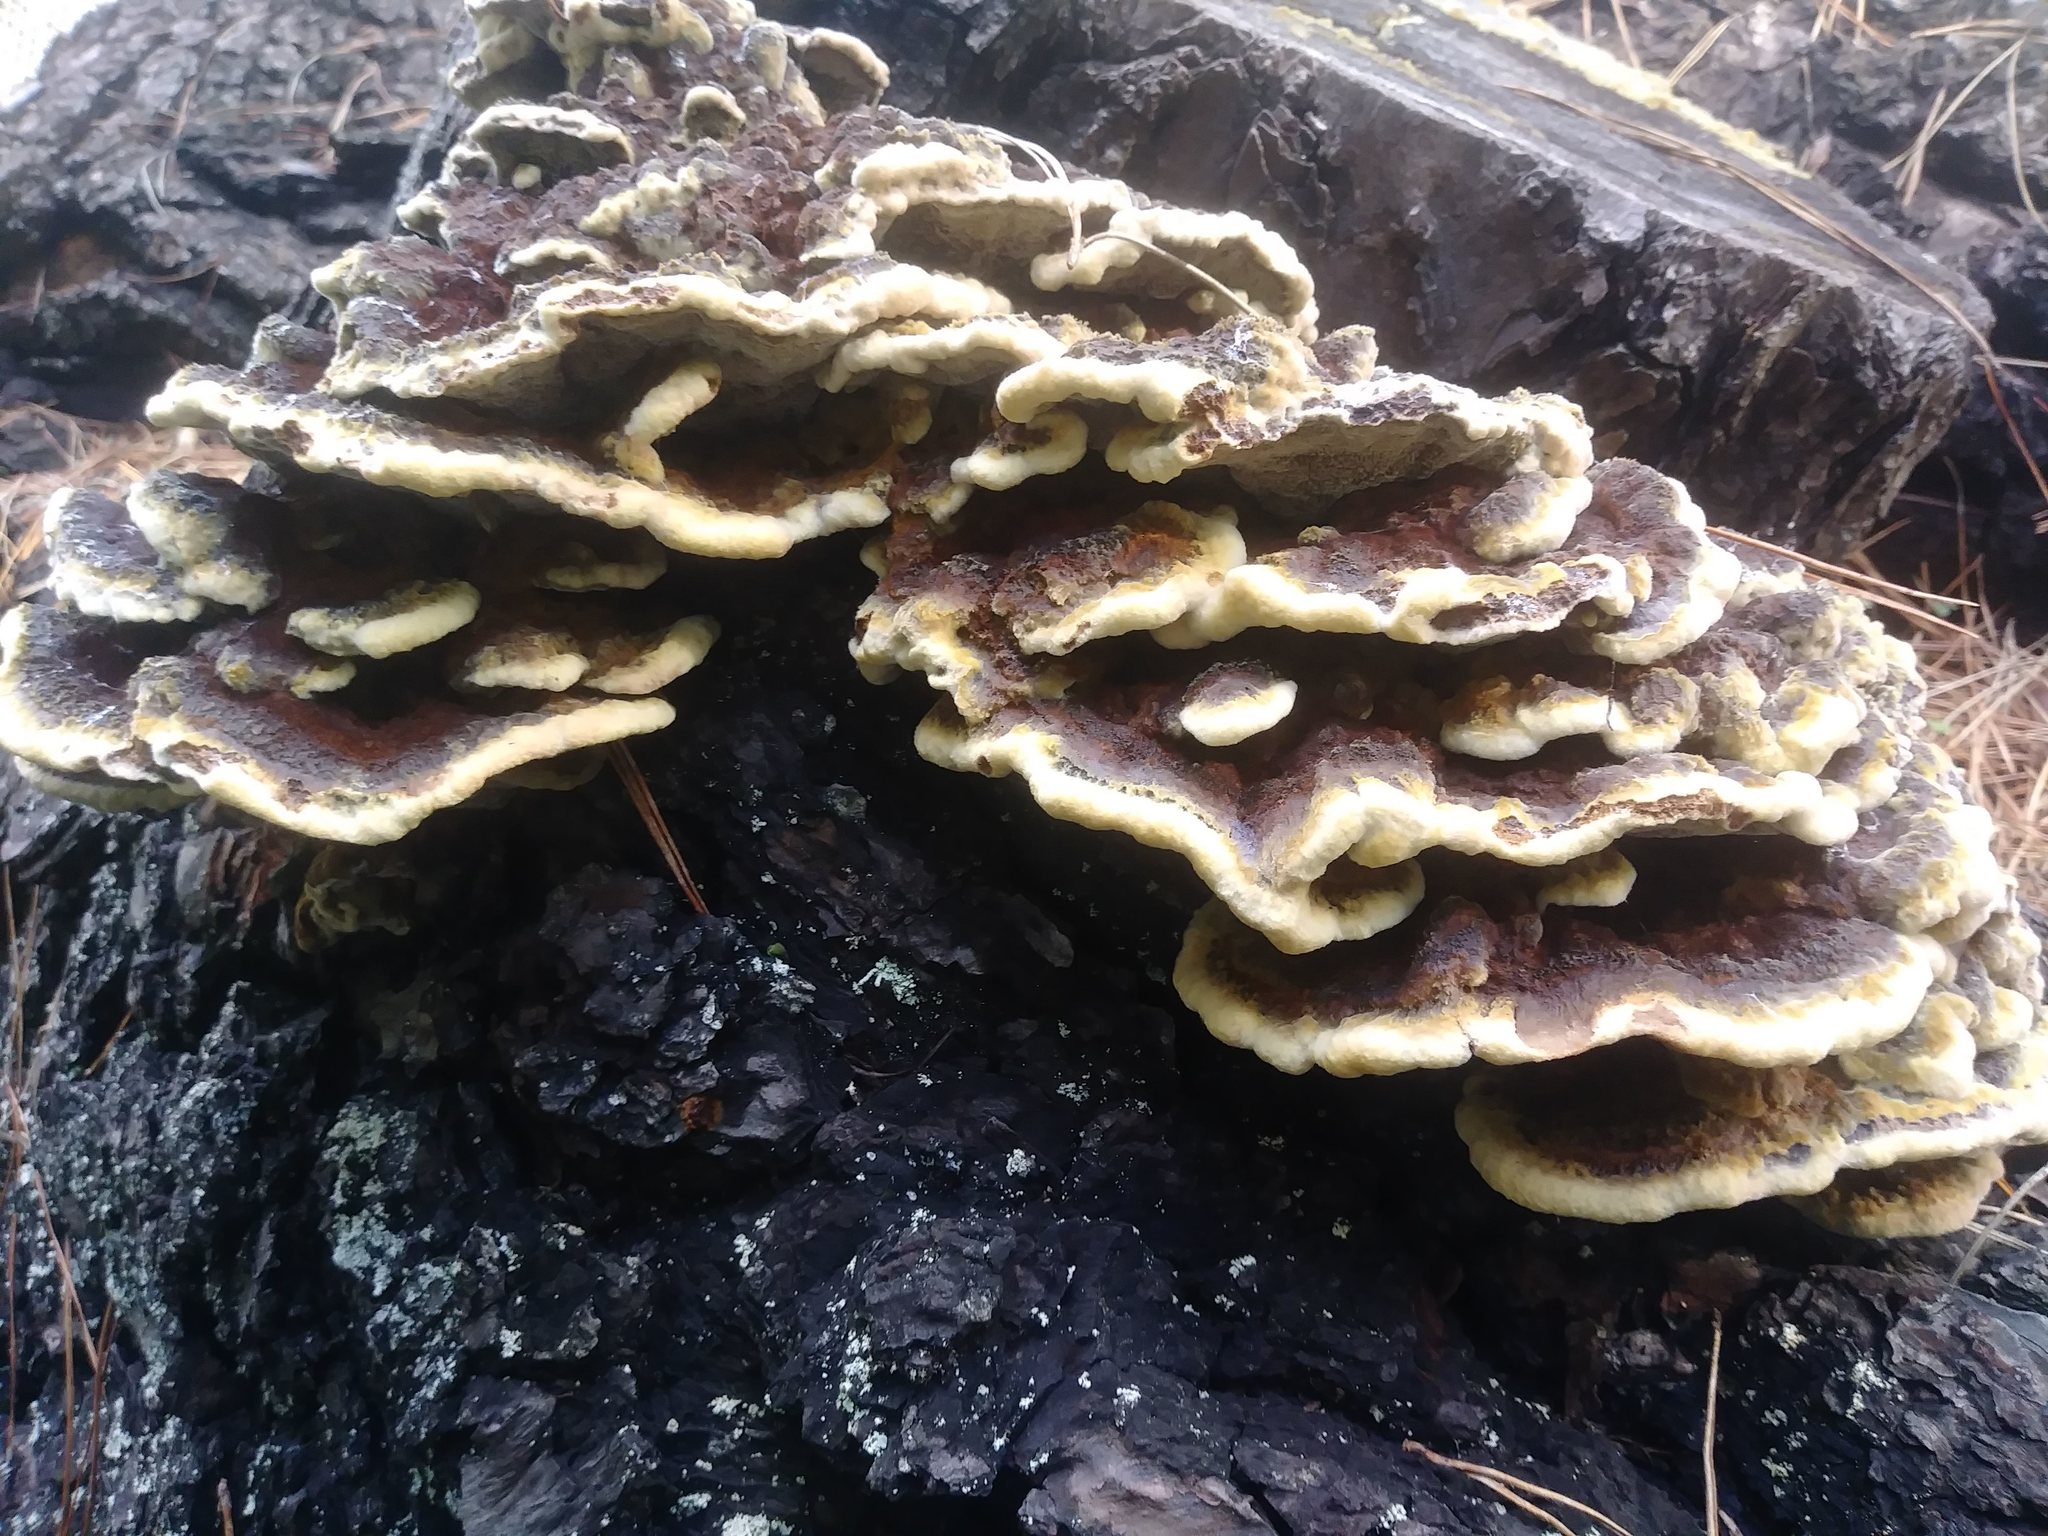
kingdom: Fungi
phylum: Basidiomycota
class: Agaricomycetes
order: Polyporales
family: Laetiporaceae
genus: Phaeolus
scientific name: Phaeolus schweinitzii
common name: Dyer's mazegill
